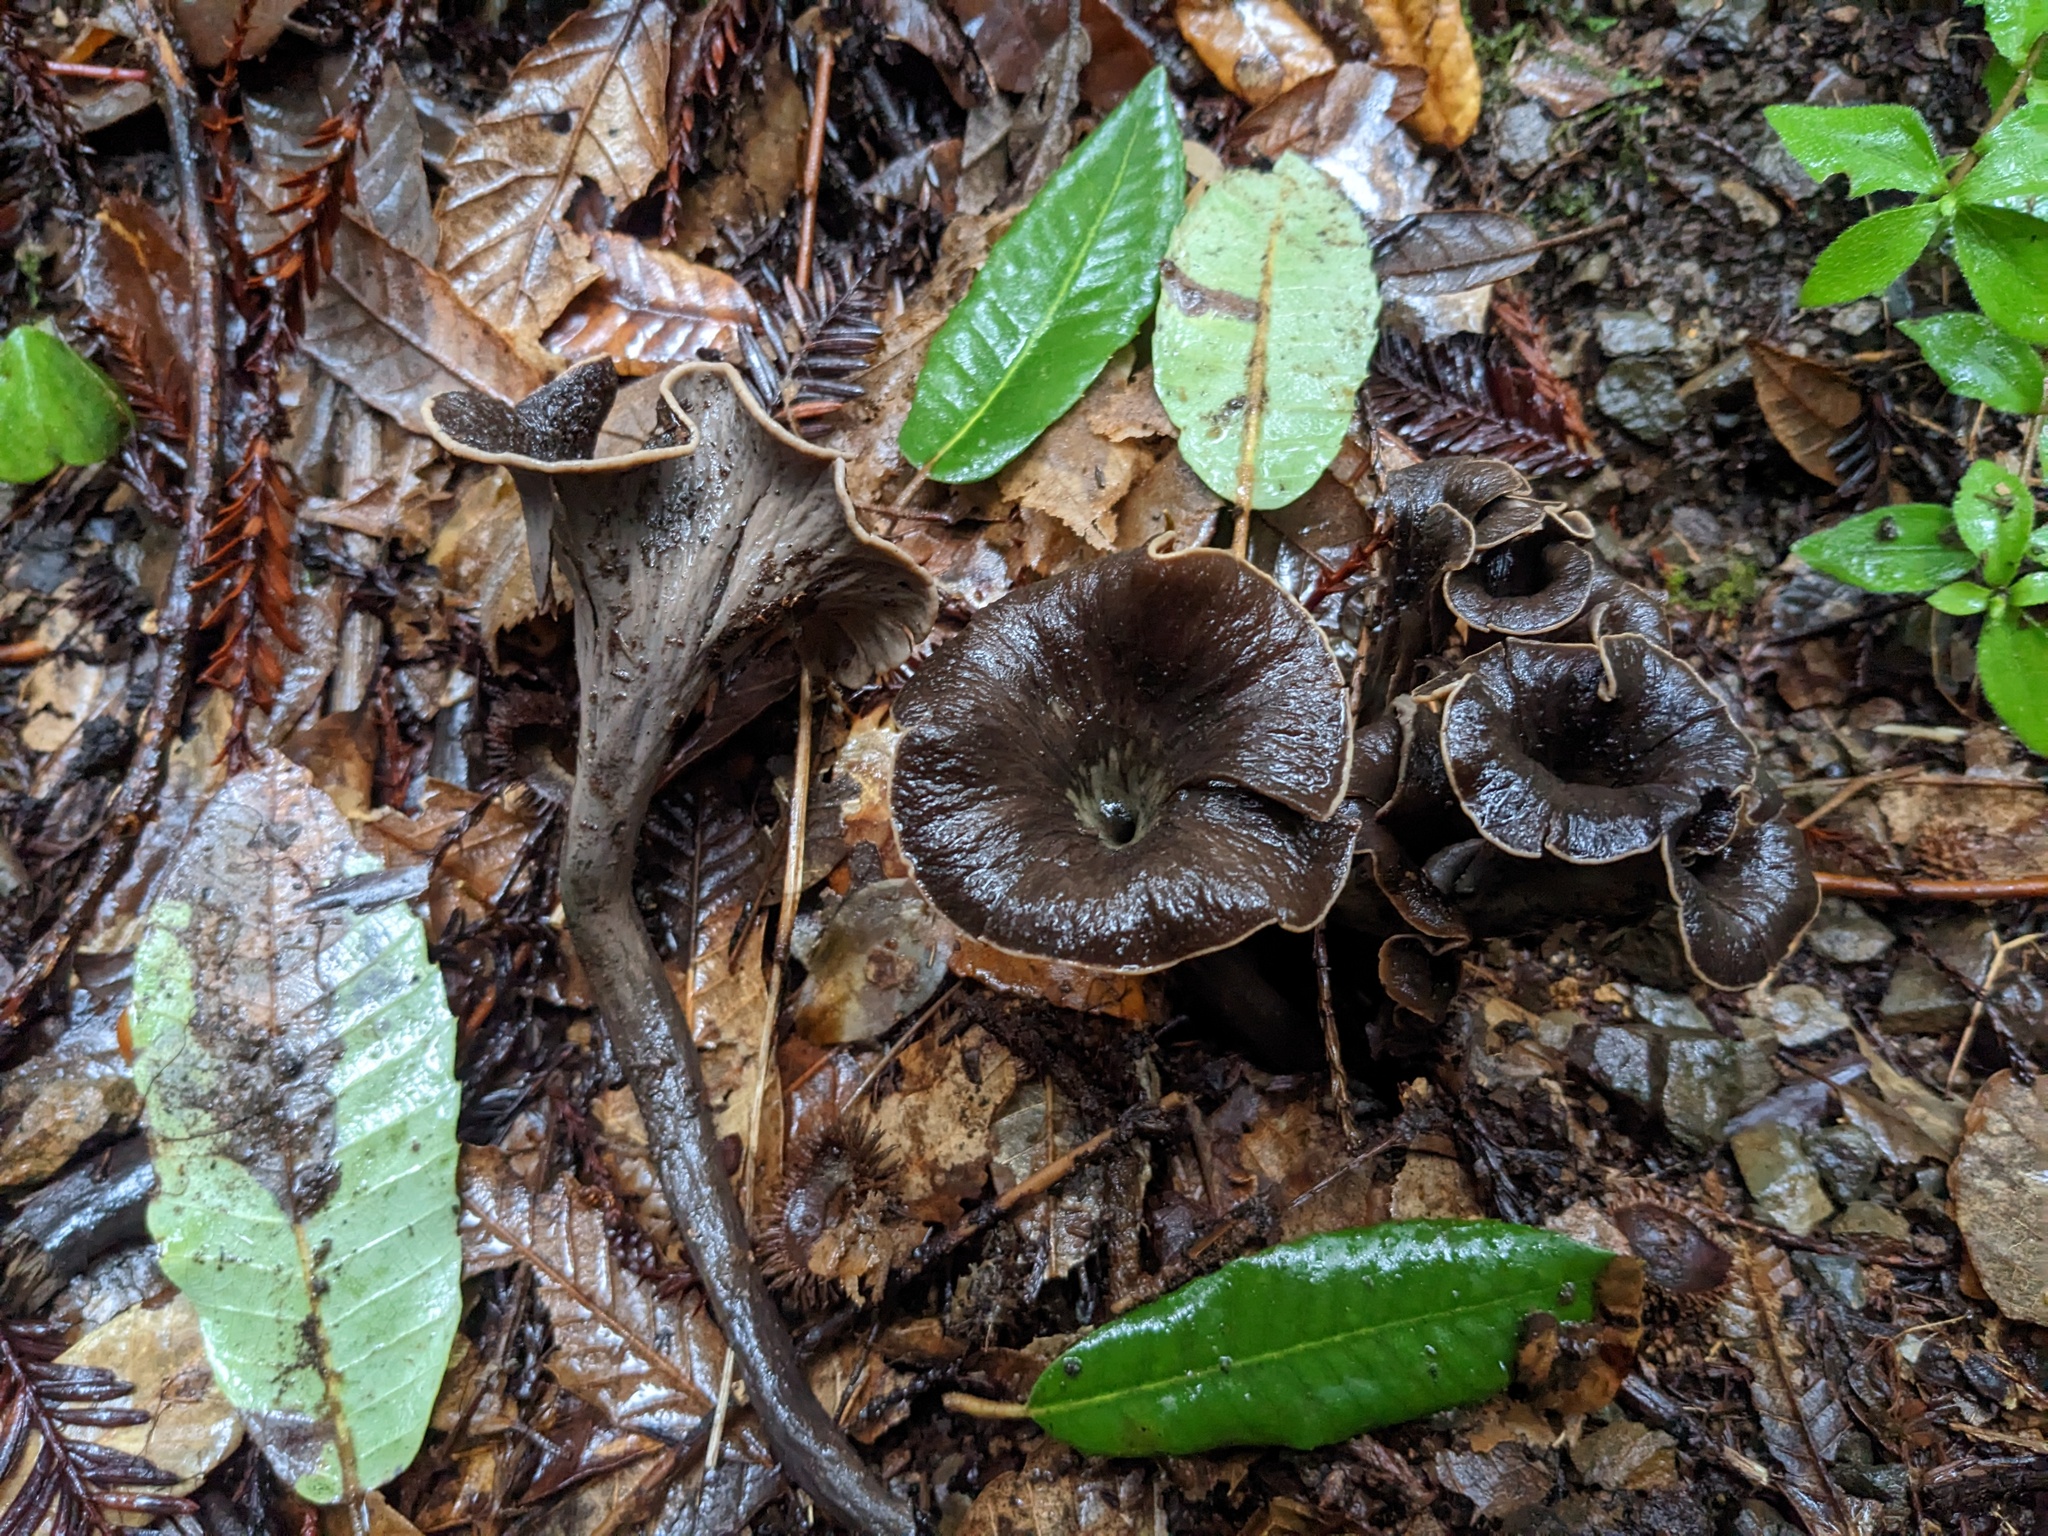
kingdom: Fungi
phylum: Basidiomycota
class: Agaricomycetes
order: Cantharellales
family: Hydnaceae
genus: Craterellus
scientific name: Craterellus calicornucopioides
